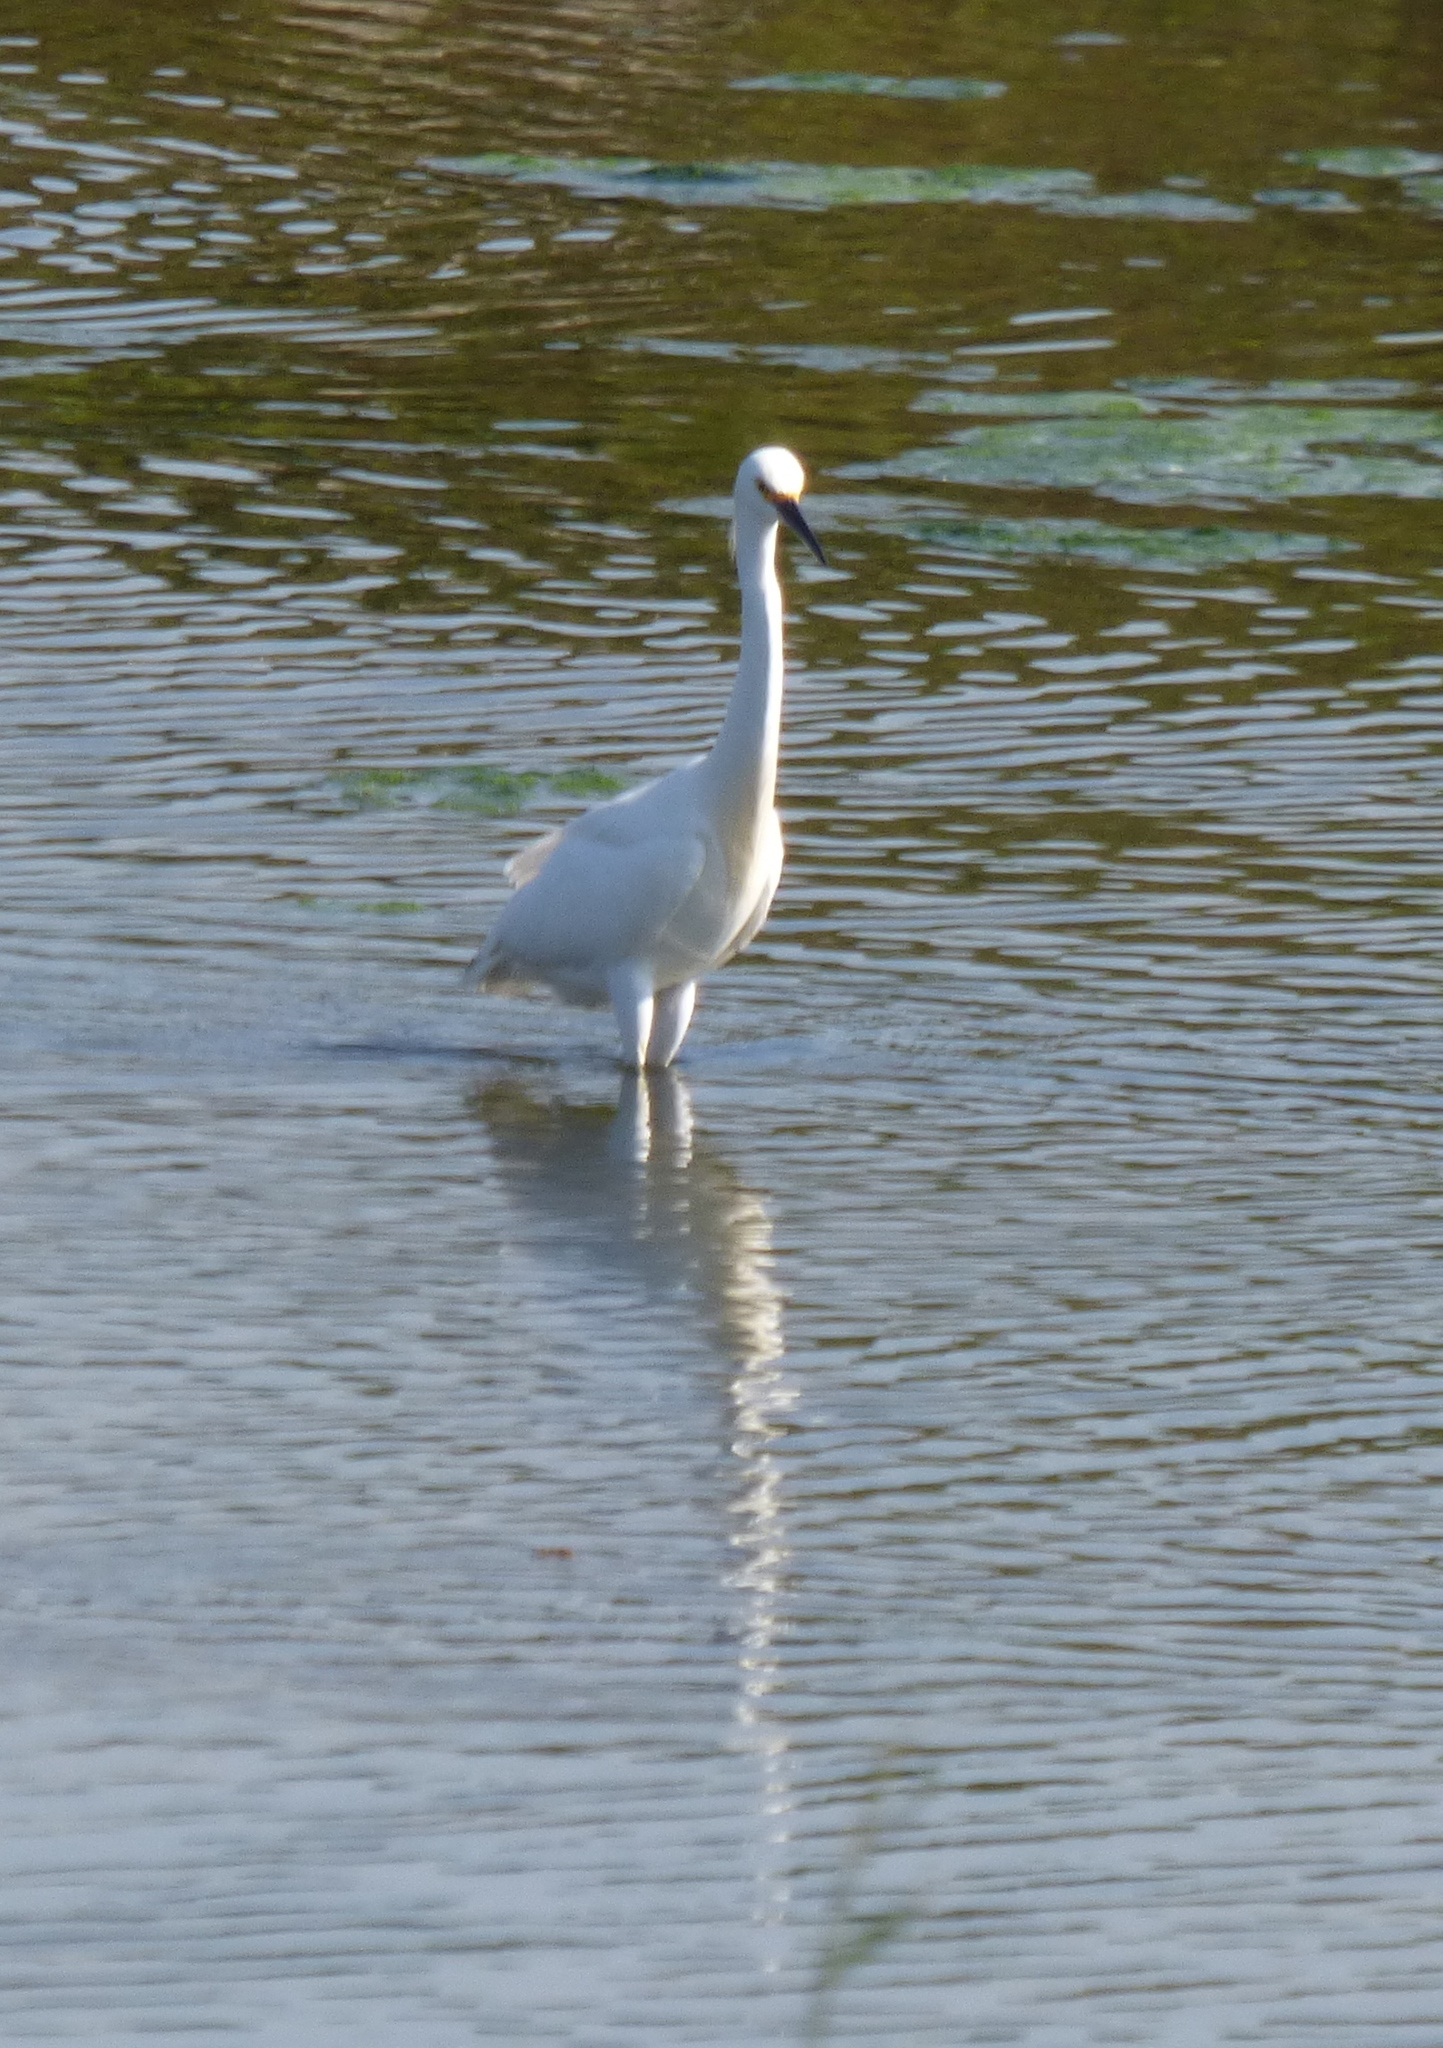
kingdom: Animalia
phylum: Chordata
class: Aves
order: Pelecaniformes
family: Ardeidae
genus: Egretta
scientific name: Egretta thula
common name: Snowy egret
